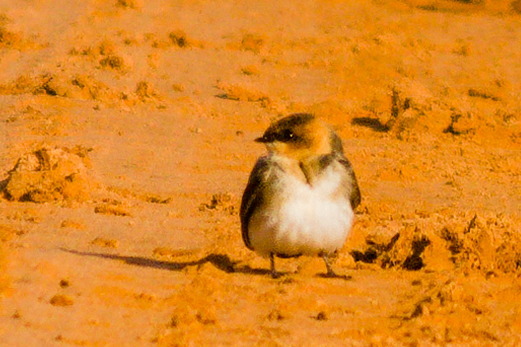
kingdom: Animalia
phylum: Chordata
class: Aves
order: Passeriformes
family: Hirundinidae
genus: Alopochelidon
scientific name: Alopochelidon fucata
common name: Tawny-headed swallow
